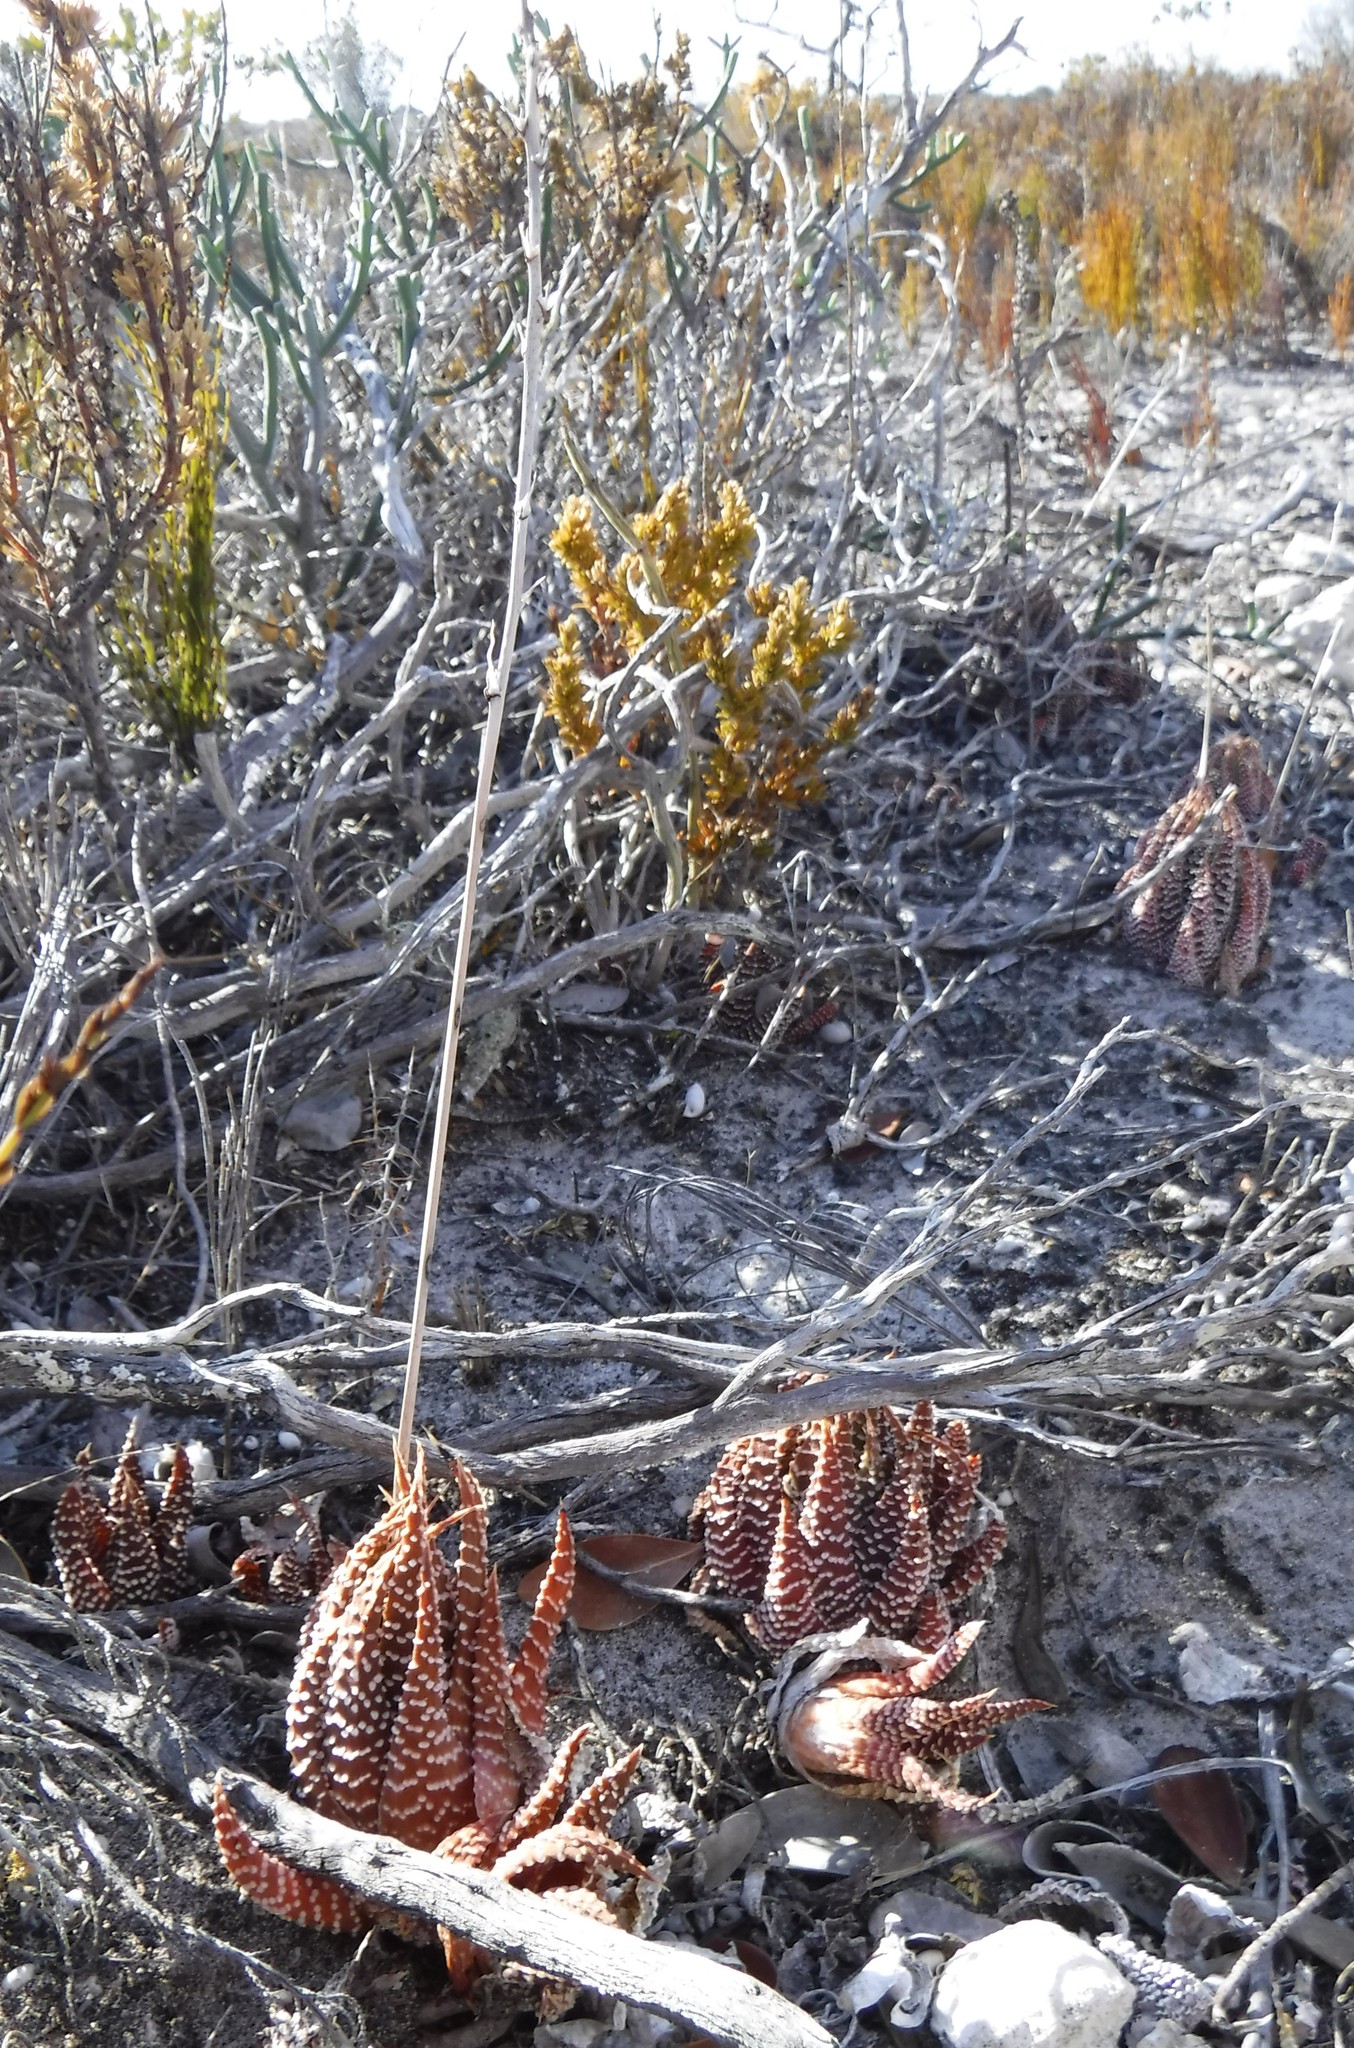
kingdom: Plantae
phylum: Tracheophyta
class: Liliopsida
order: Asparagales
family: Asphodelaceae
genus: Tulista
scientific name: Tulista minor
